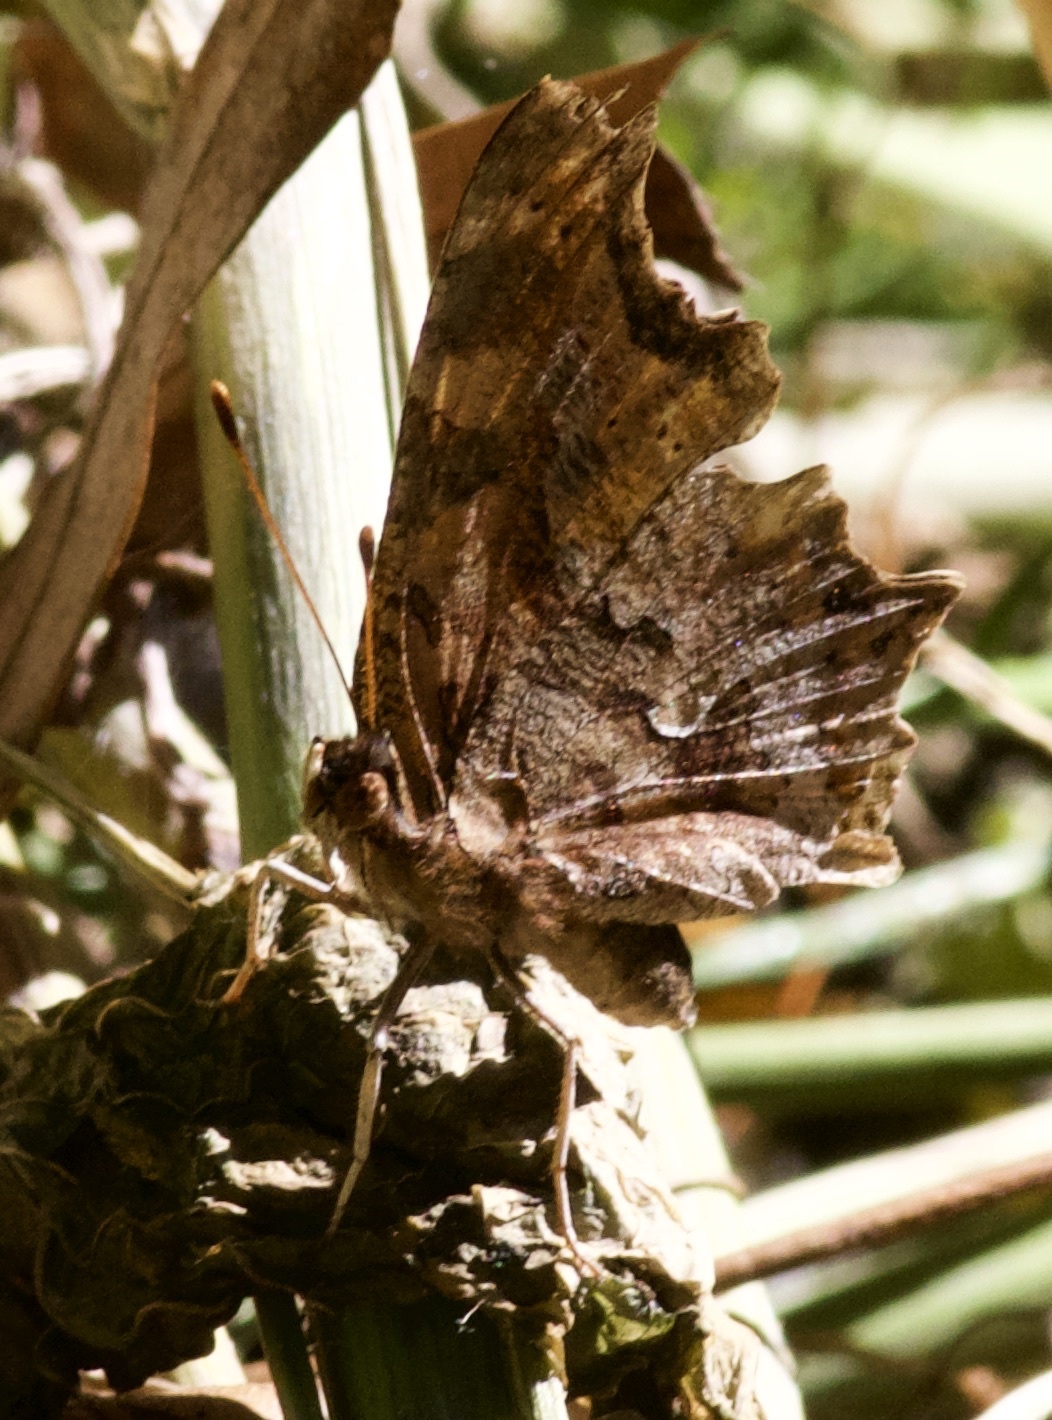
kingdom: Animalia
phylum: Arthropoda
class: Insecta
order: Lepidoptera
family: Nymphalidae
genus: Polygonia
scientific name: Polygonia comma
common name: Eastern comma
